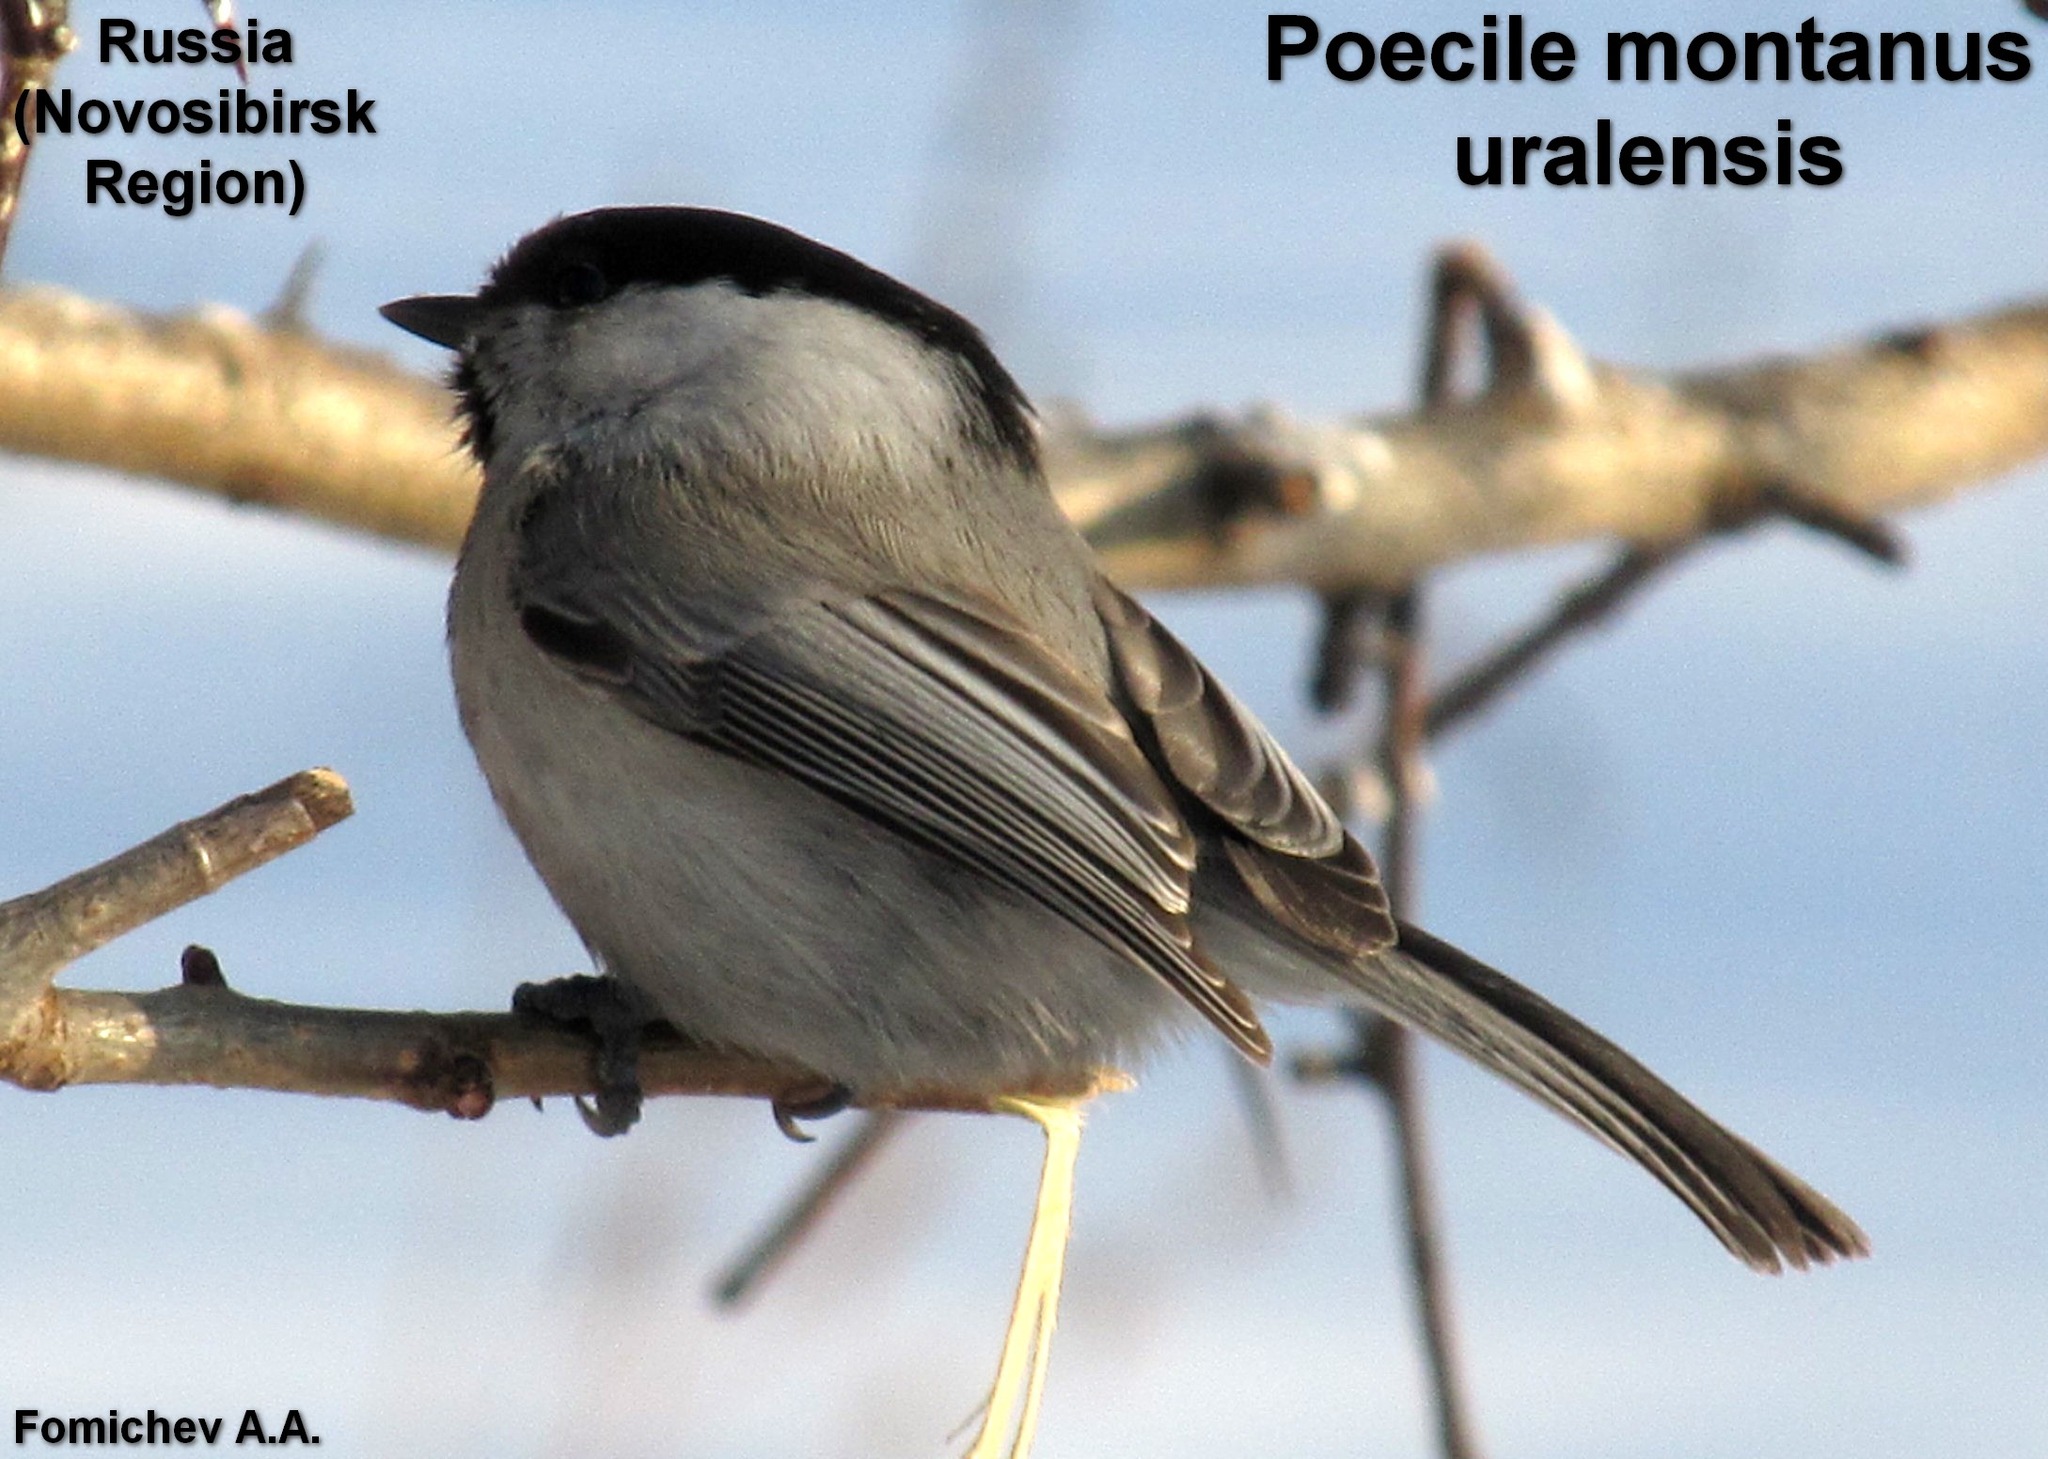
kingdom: Animalia
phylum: Chordata
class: Aves
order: Passeriformes
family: Paridae
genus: Poecile
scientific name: Poecile montanus
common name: Willow tit
